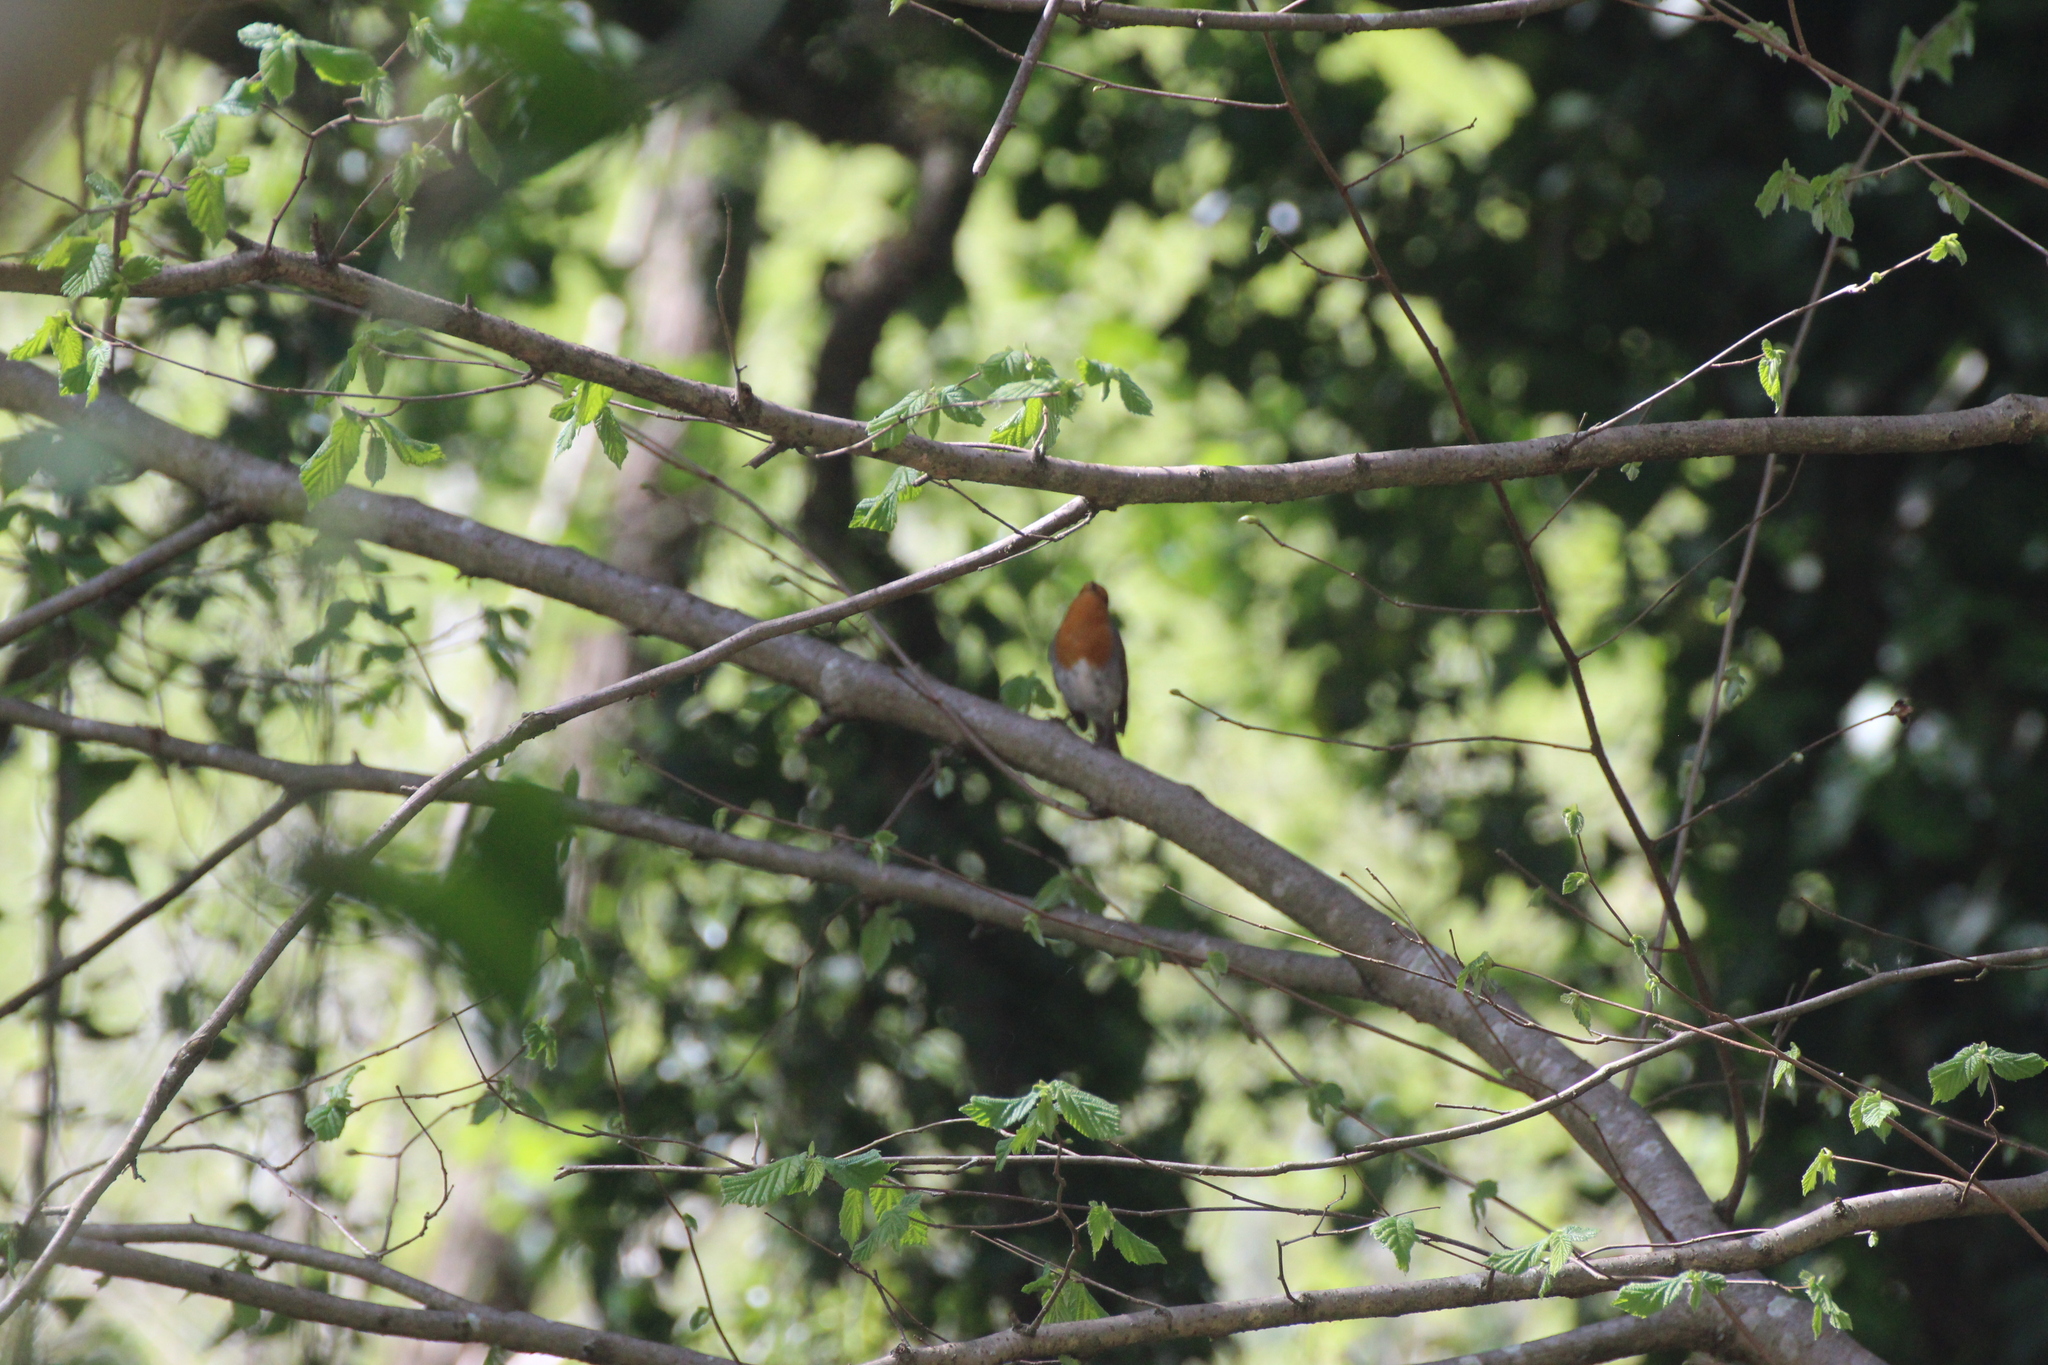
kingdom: Animalia
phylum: Chordata
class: Aves
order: Passeriformes
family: Muscicapidae
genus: Erithacus
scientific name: Erithacus rubecula
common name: European robin
